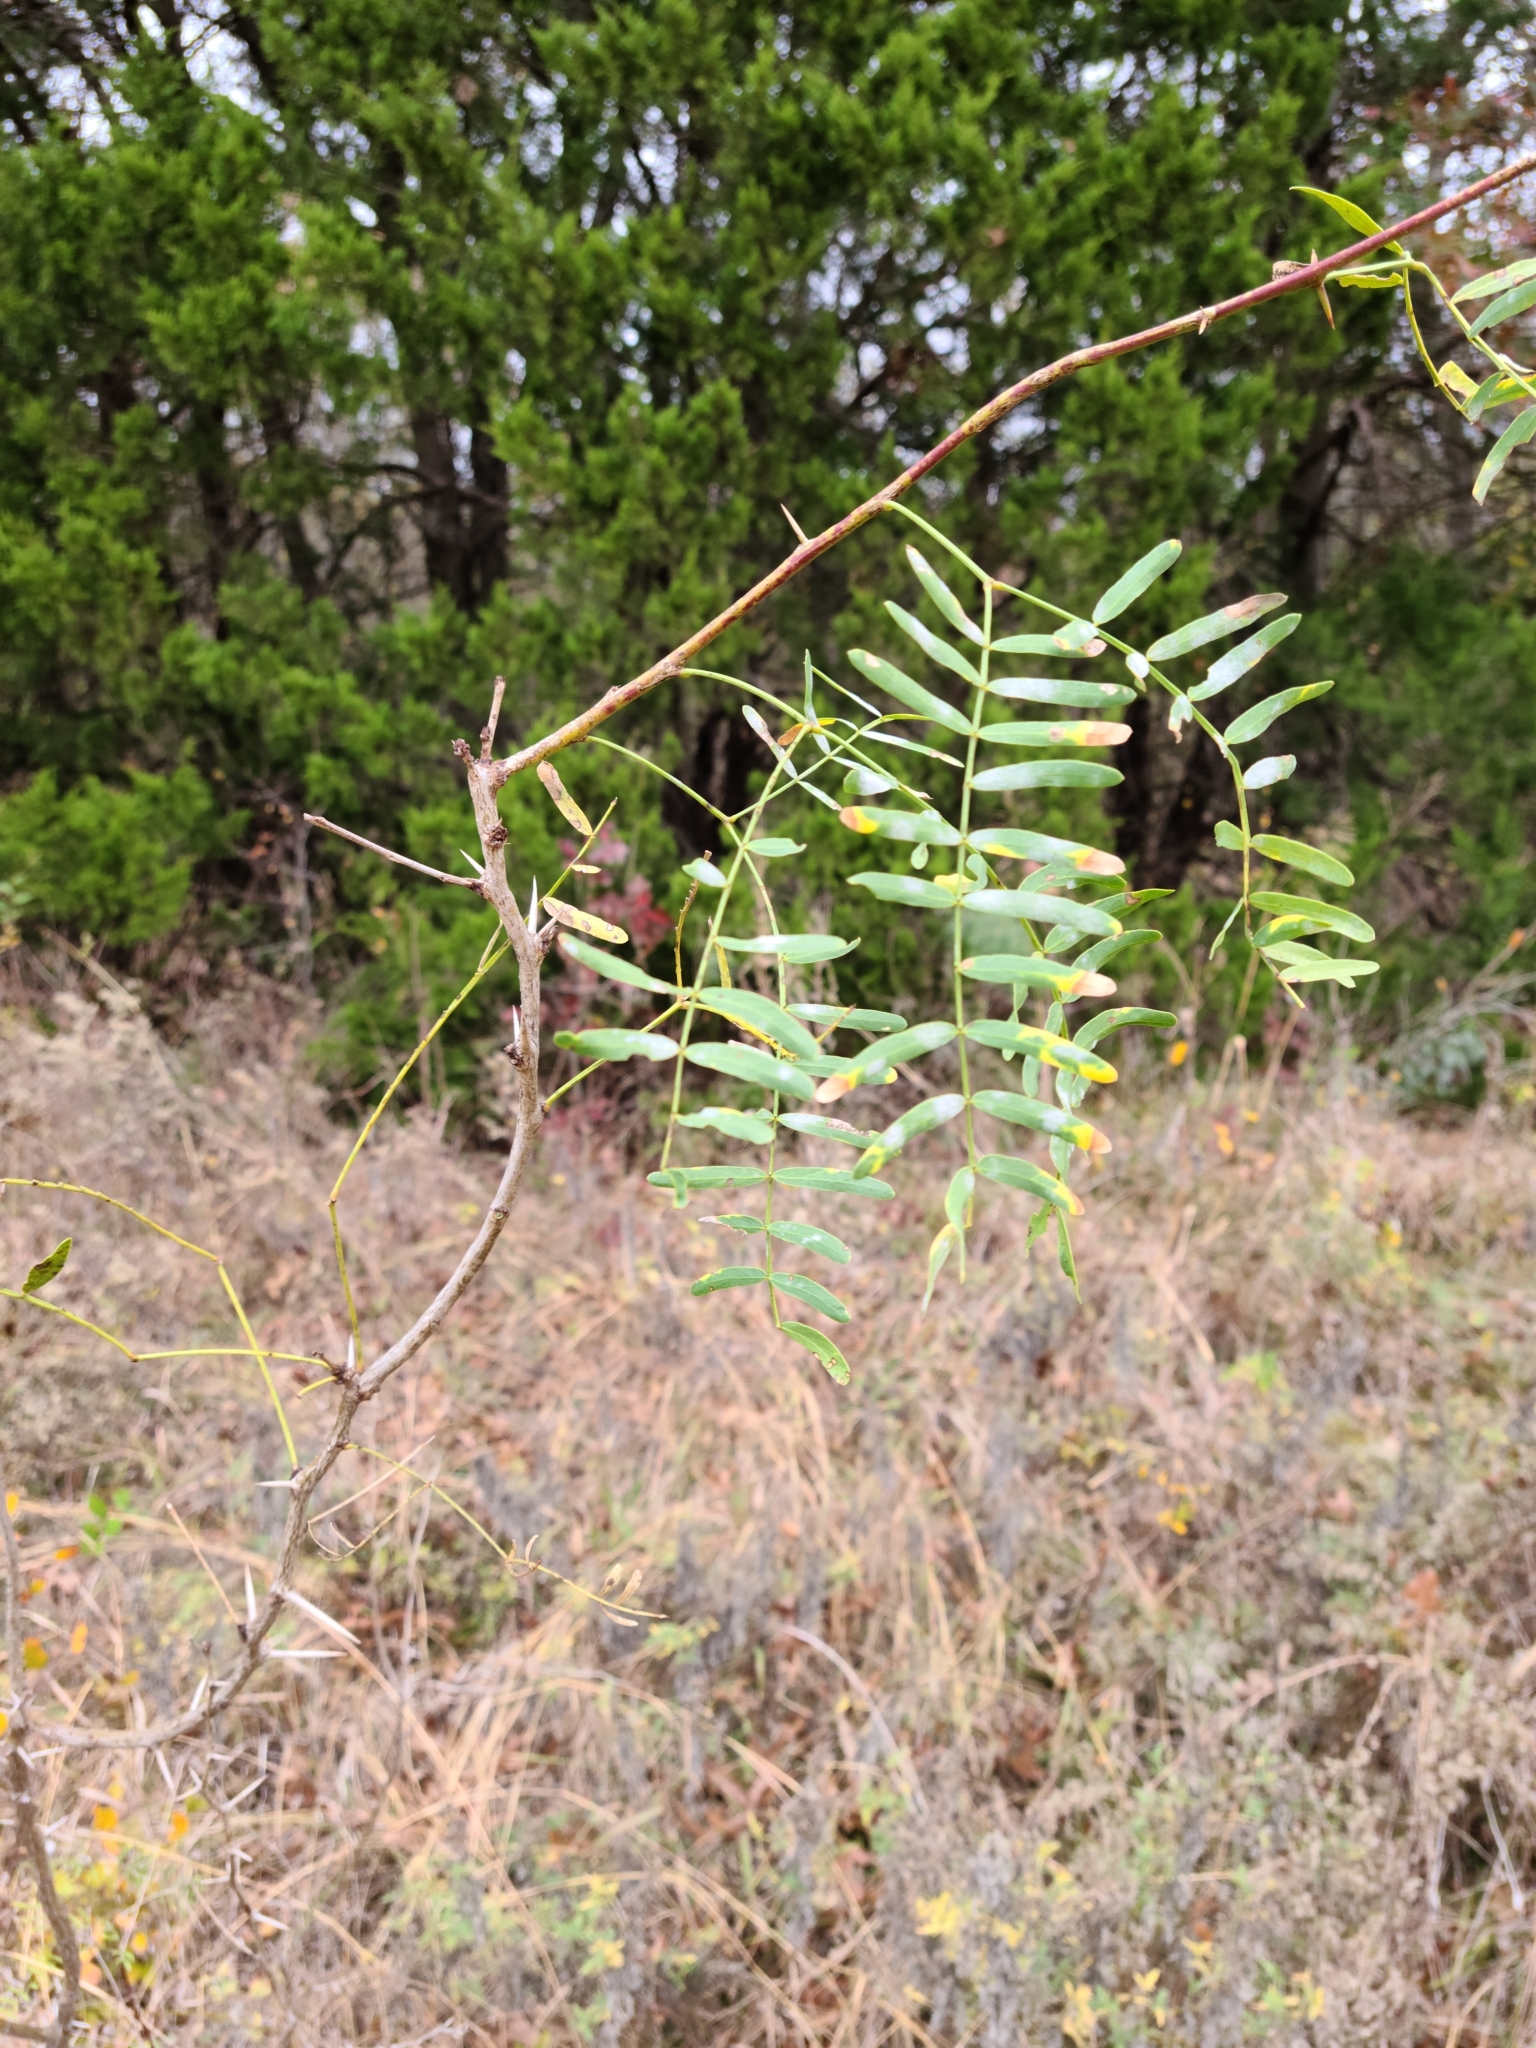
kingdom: Plantae
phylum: Tracheophyta
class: Magnoliopsida
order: Fabales
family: Fabaceae
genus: Prosopis
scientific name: Prosopis glandulosa
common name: Honey mesquite
